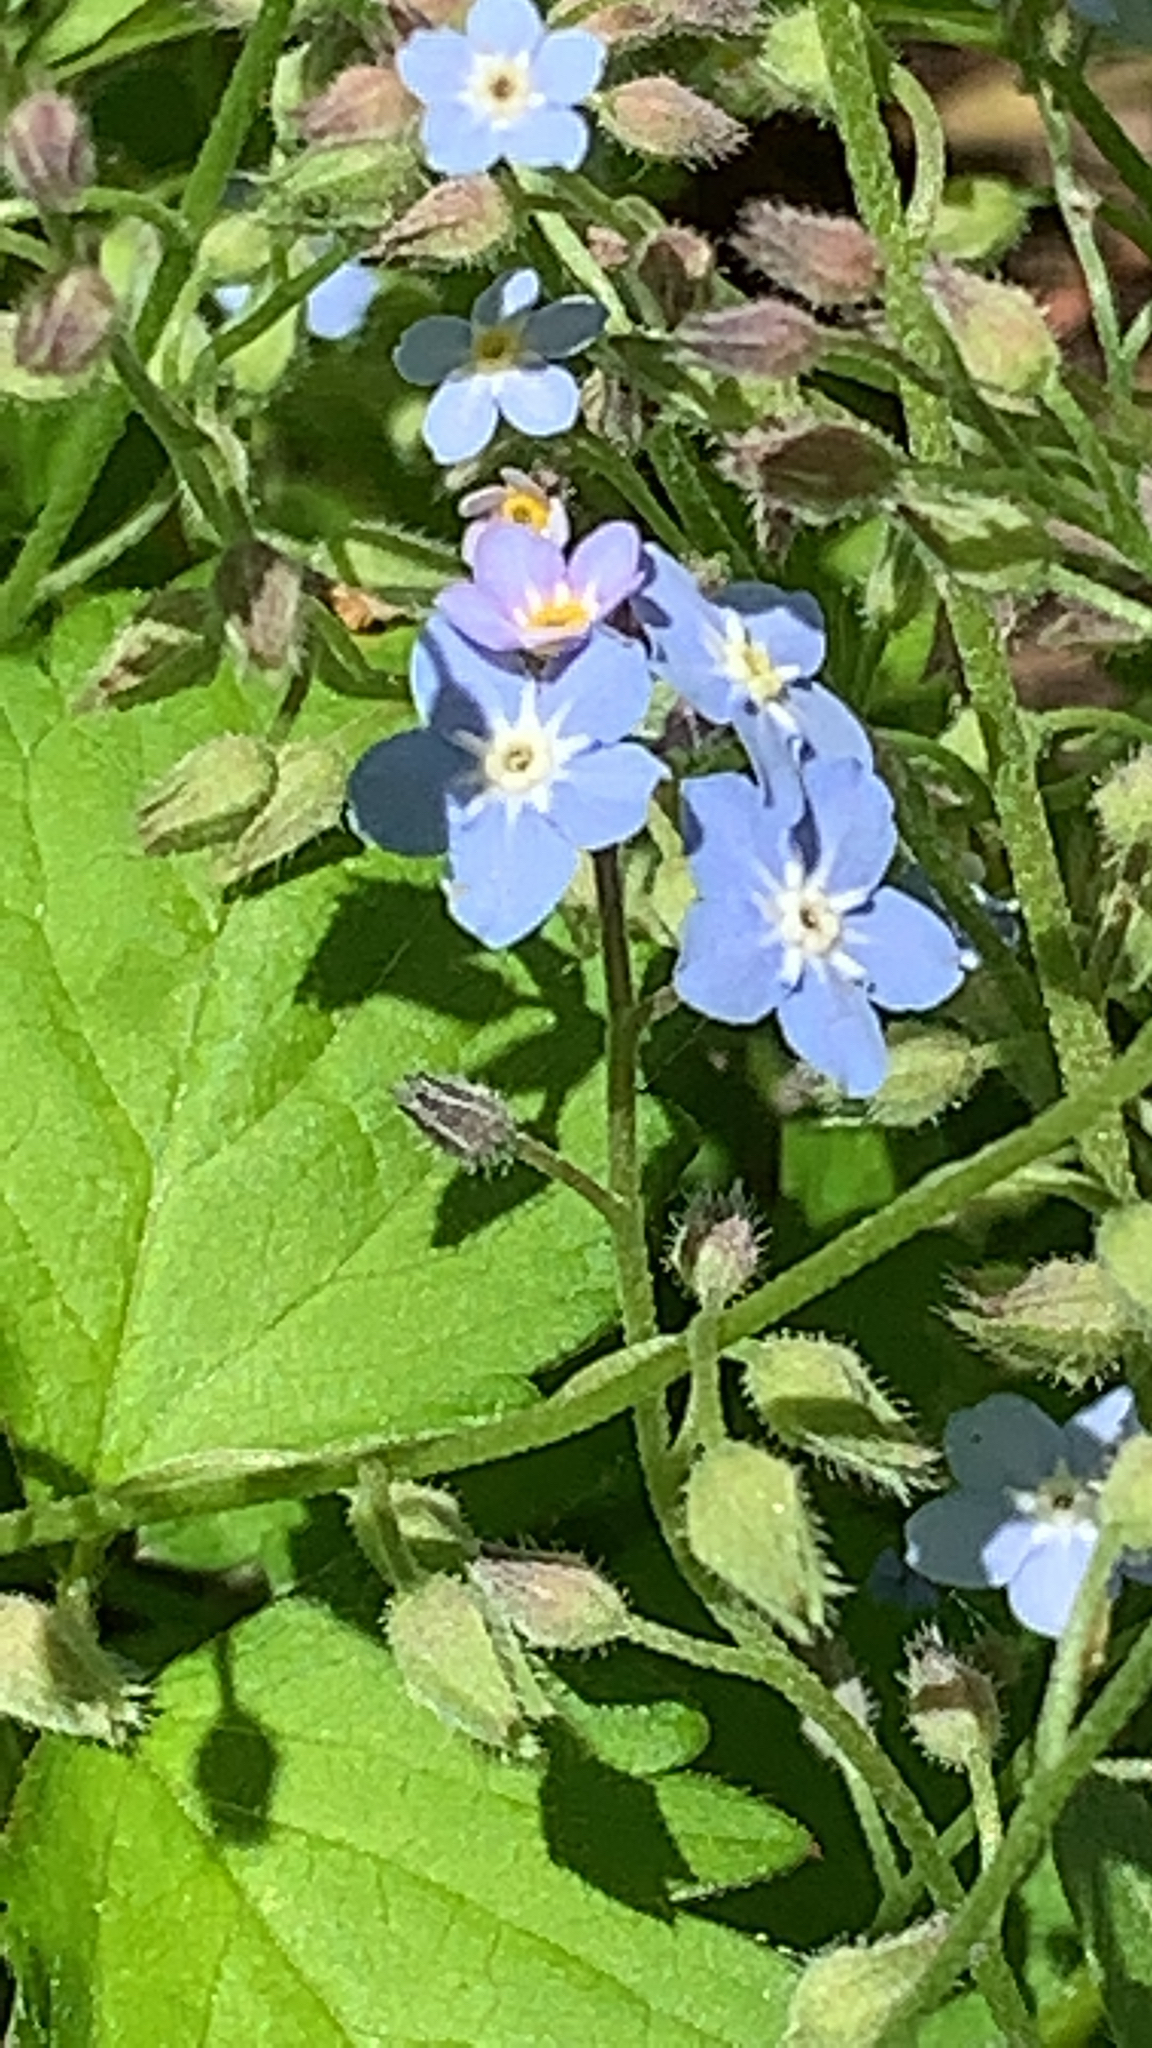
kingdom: Plantae
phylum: Tracheophyta
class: Magnoliopsida
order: Boraginales
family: Boraginaceae
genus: Myosotis
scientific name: Myosotis sylvatica
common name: Wood forget-me-not
